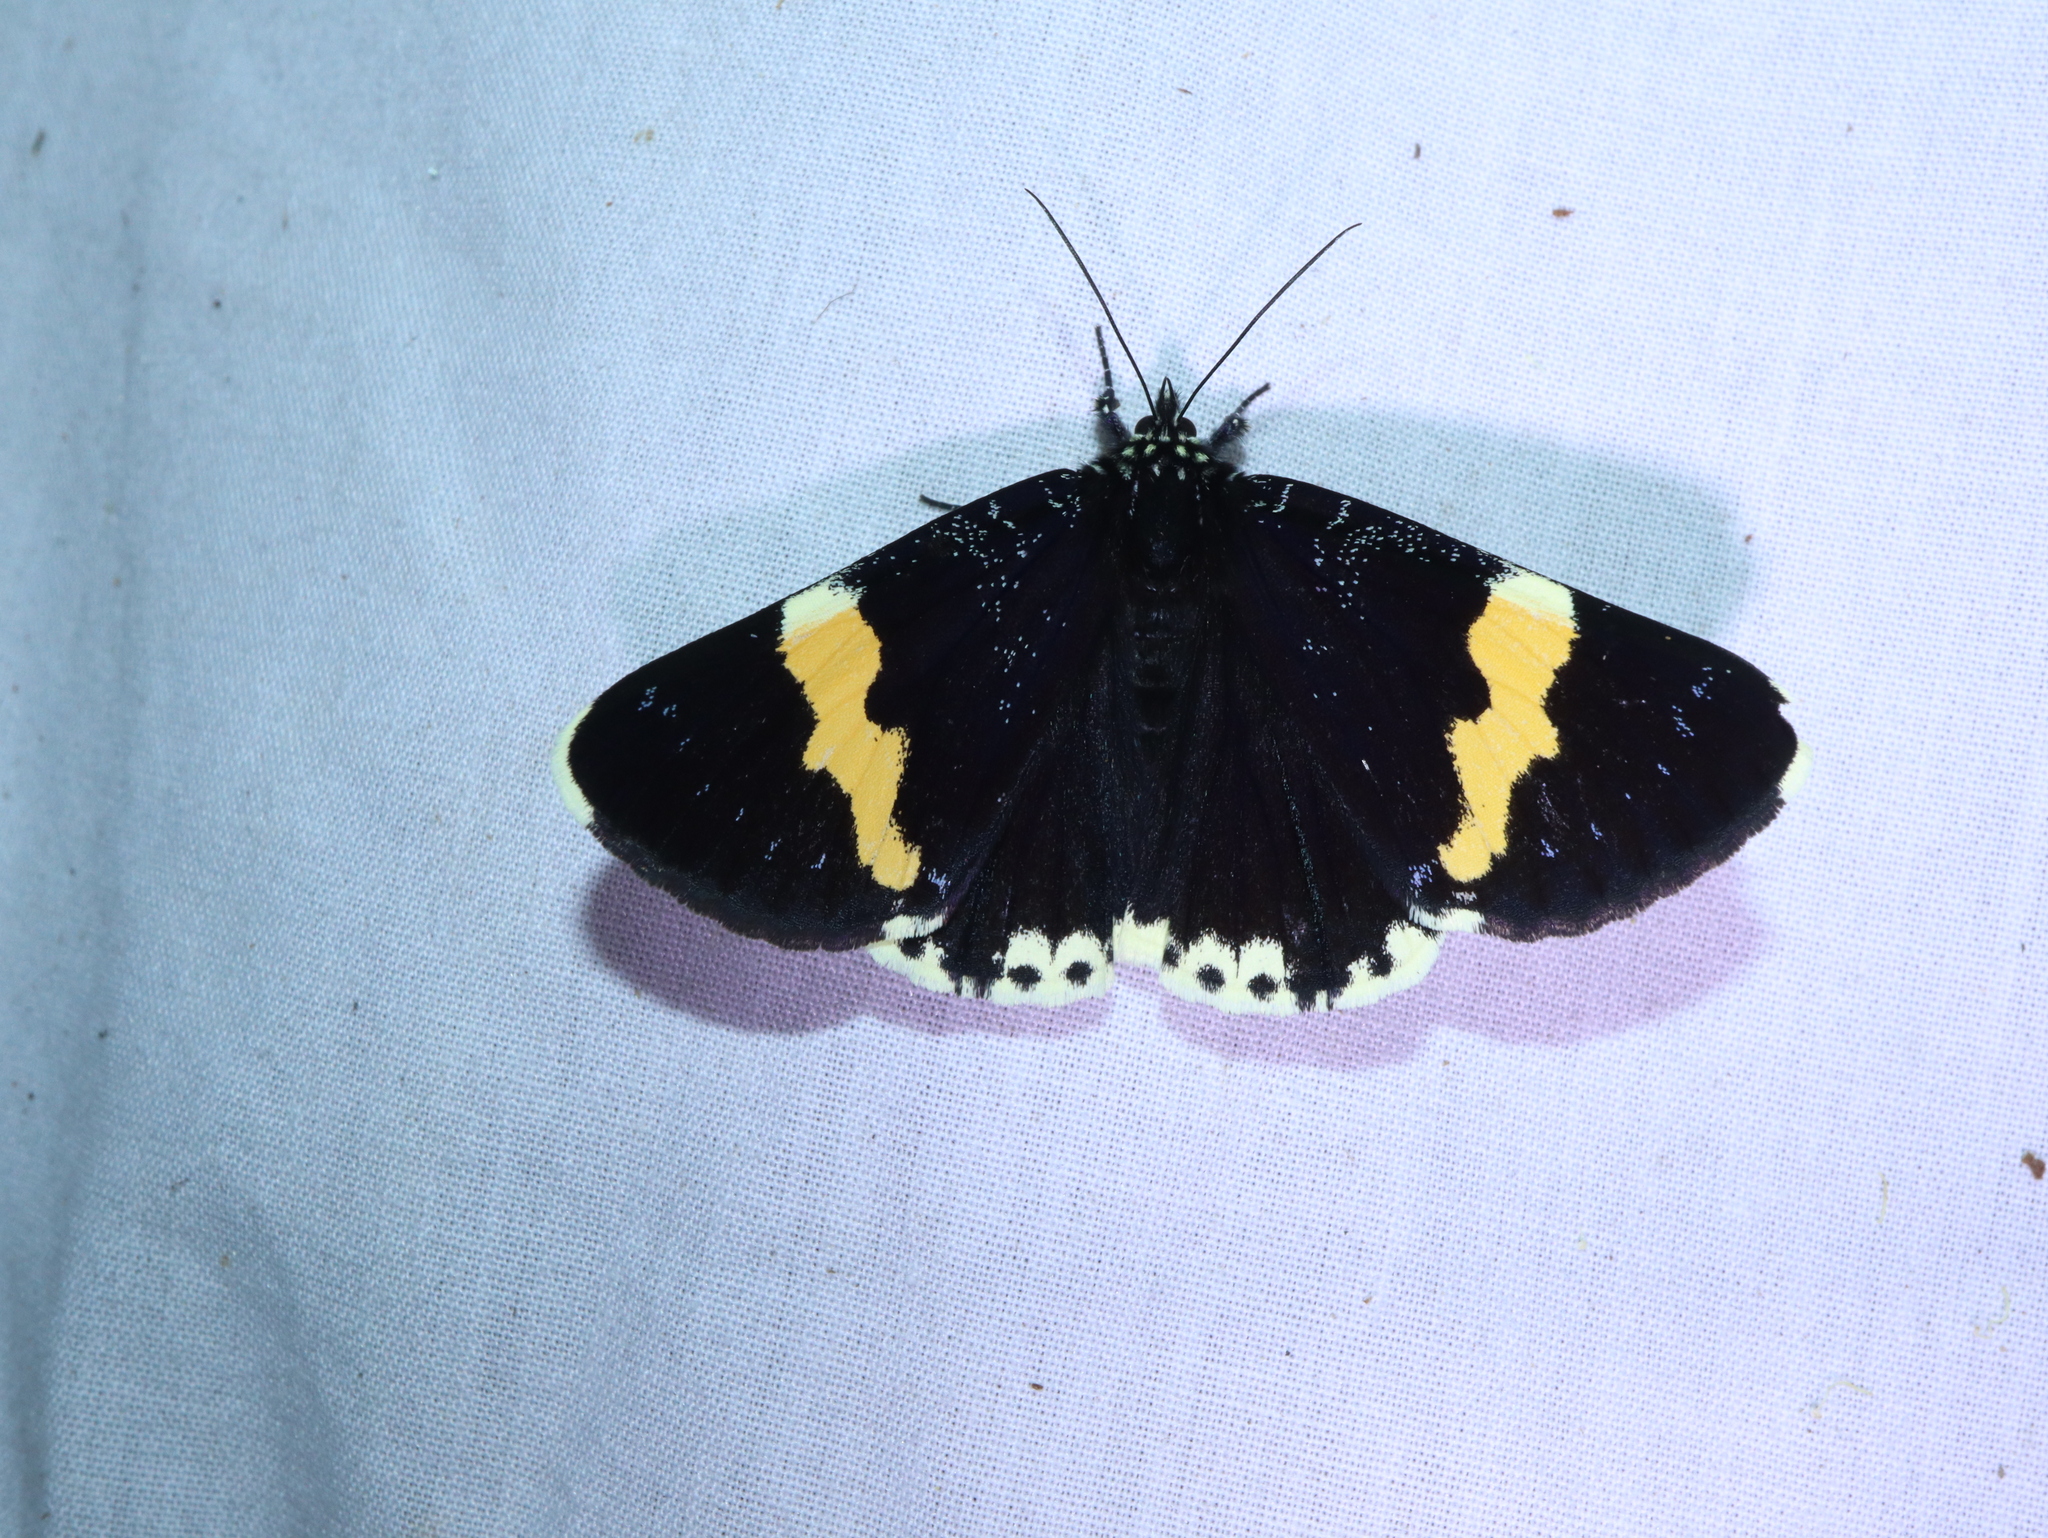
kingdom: Animalia
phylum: Arthropoda
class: Insecta
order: Lepidoptera
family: Noctuidae
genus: Eutrichopidia
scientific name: Eutrichopidia latinus
